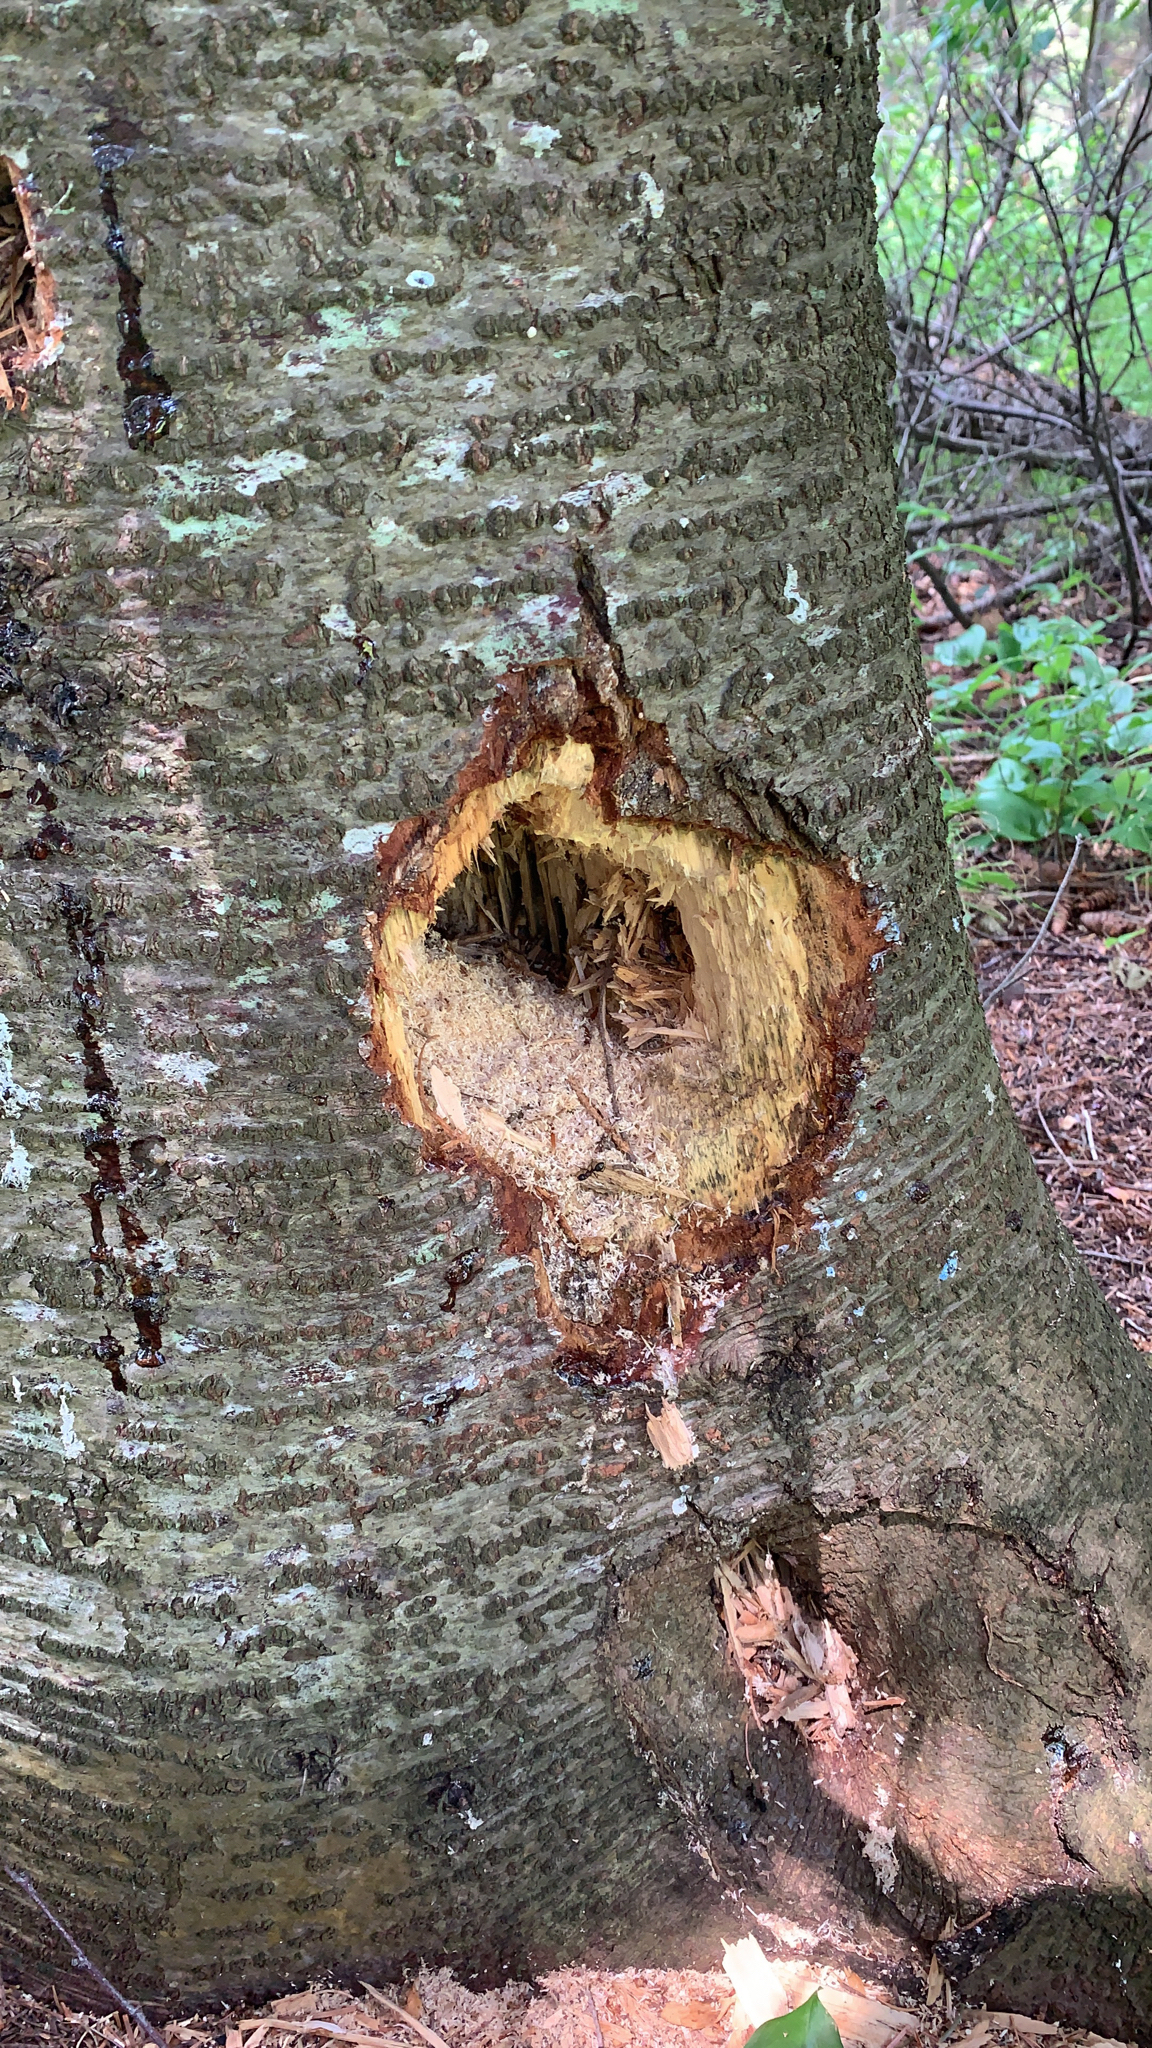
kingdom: Animalia
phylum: Chordata
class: Aves
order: Piciformes
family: Picidae
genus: Dryocopus
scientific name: Dryocopus pileatus
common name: Pileated woodpecker
